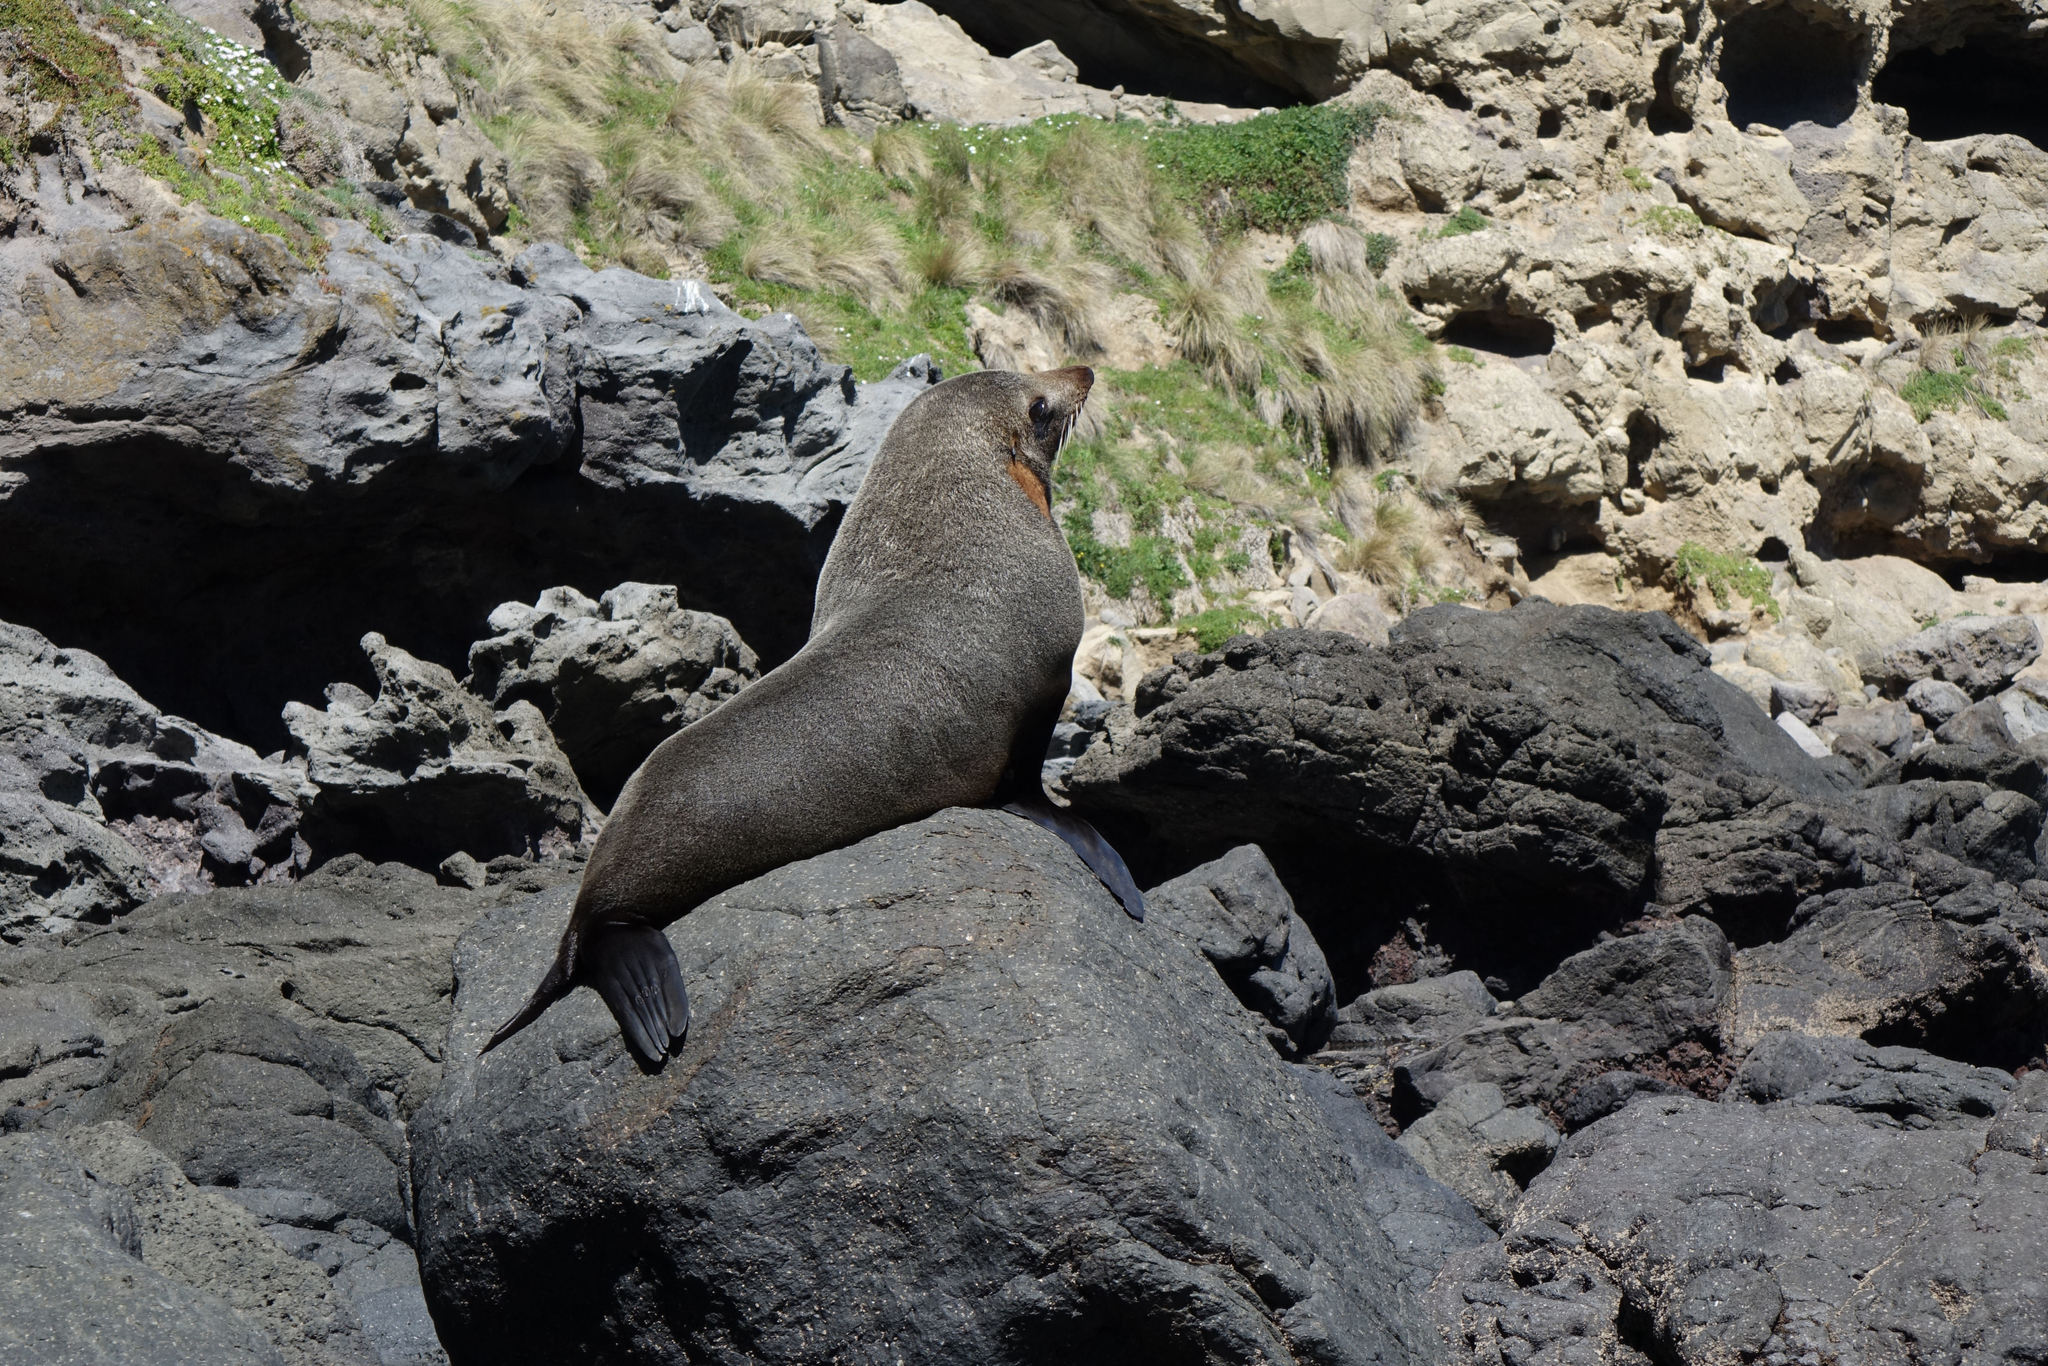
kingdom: Animalia
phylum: Chordata
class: Mammalia
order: Carnivora
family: Otariidae
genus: Arctocephalus
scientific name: Arctocephalus forsteri
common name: New zealand fur seal
